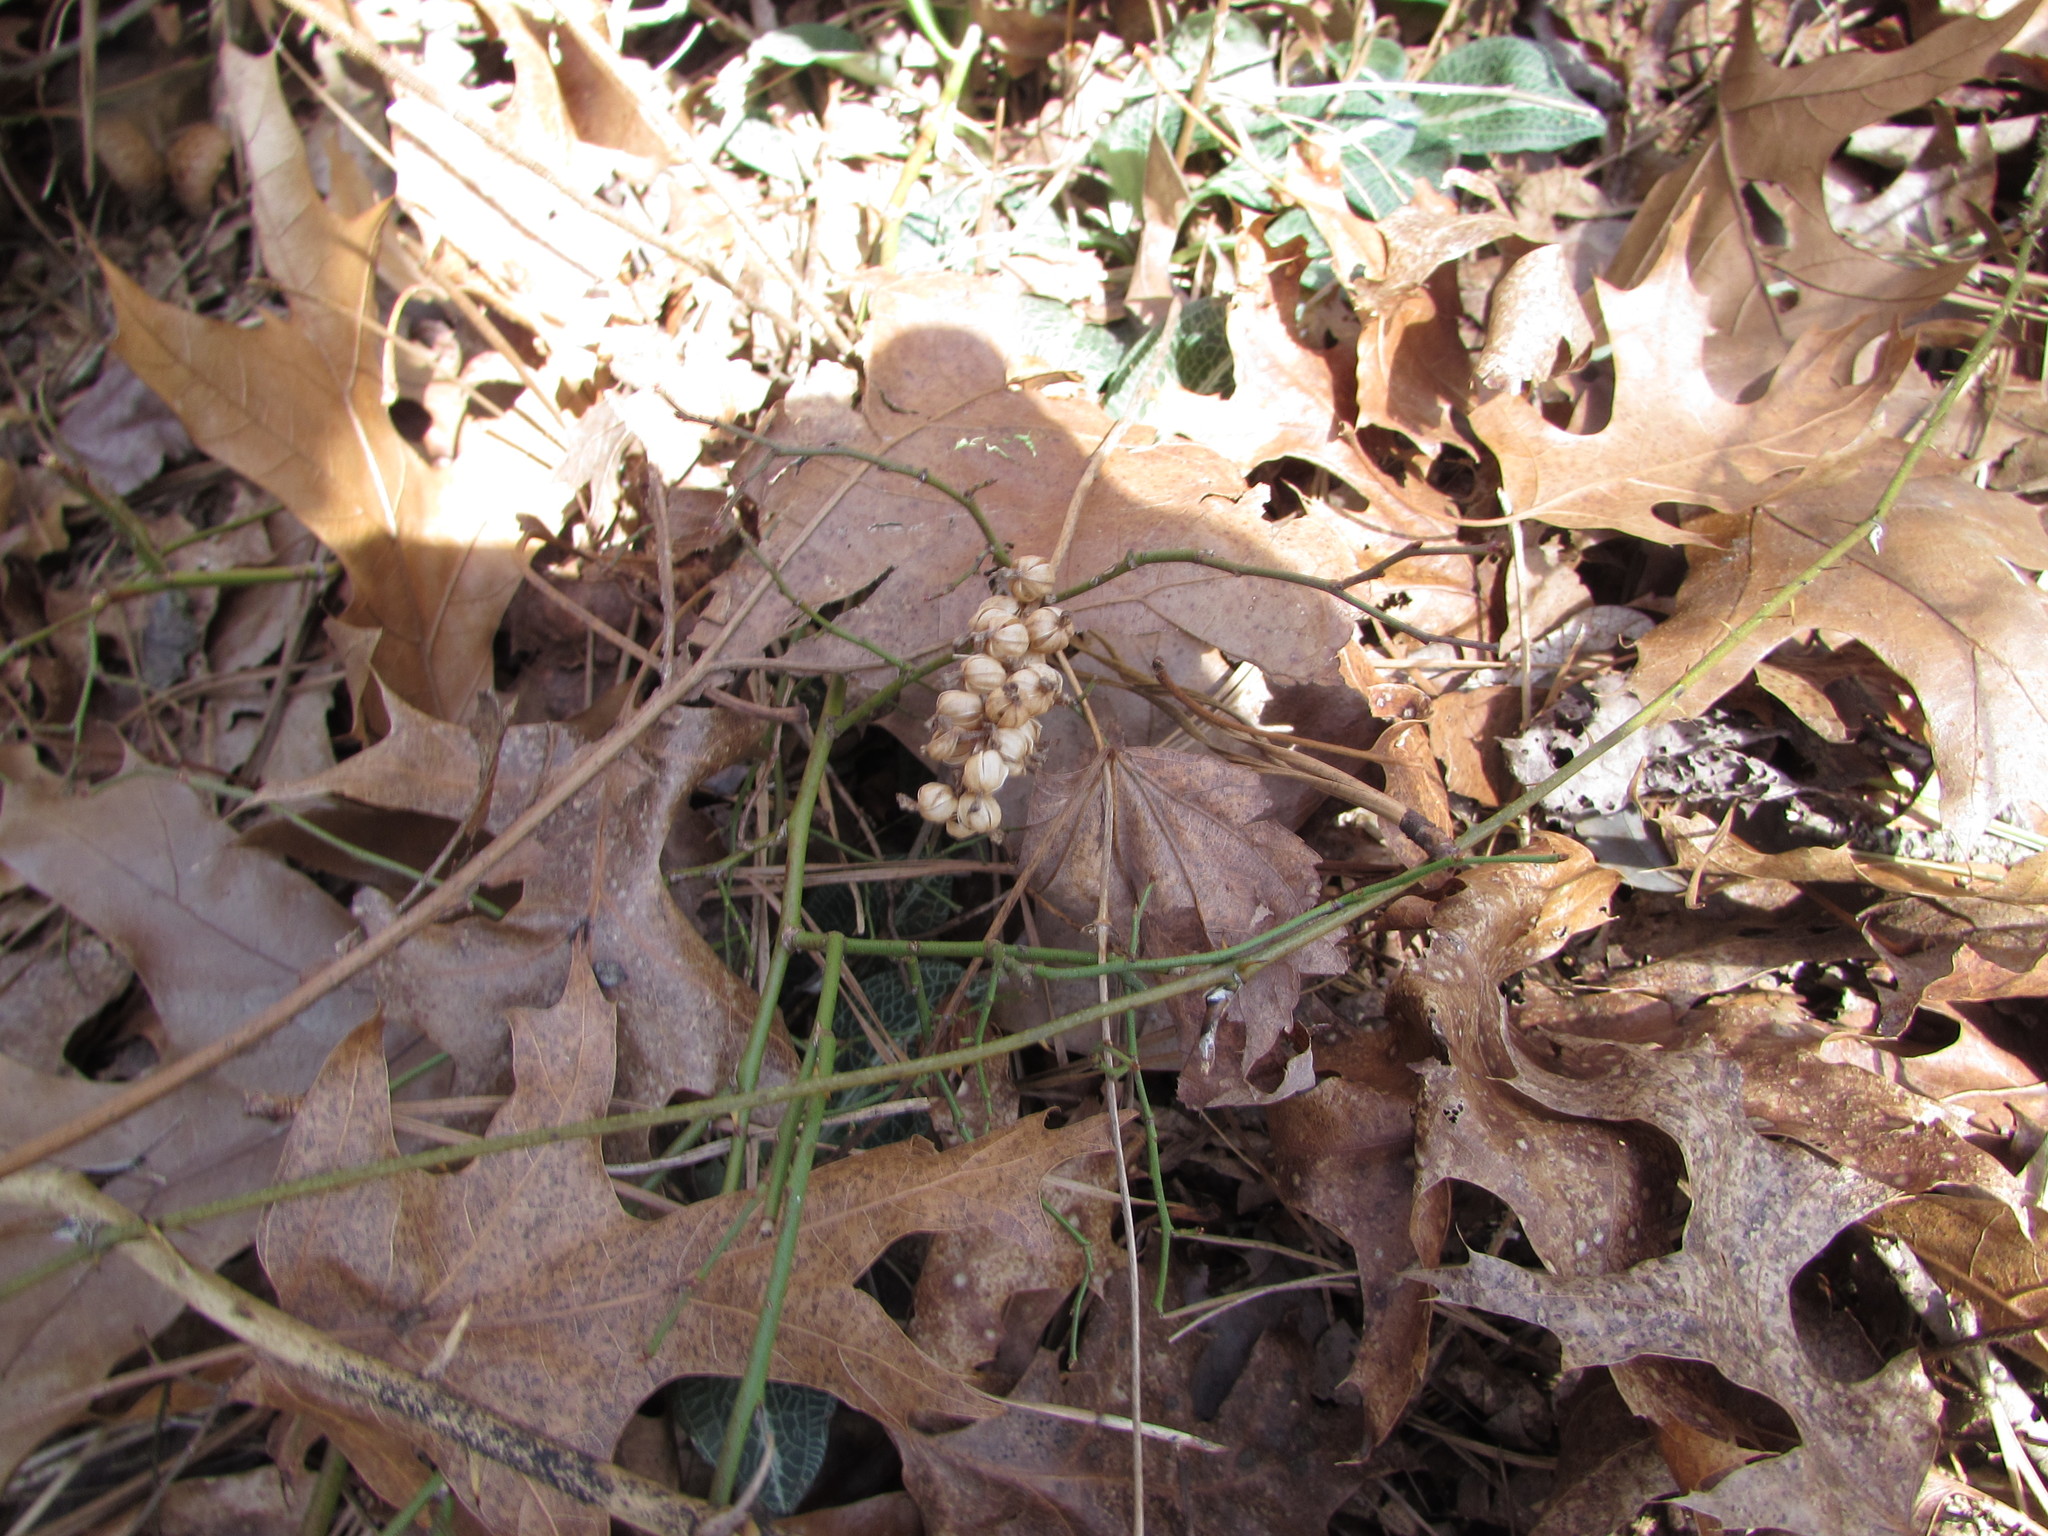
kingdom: Plantae
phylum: Tracheophyta
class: Liliopsida
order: Asparagales
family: Orchidaceae
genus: Goodyera
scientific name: Goodyera pubescens
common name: Downy rattlesnake-plantain
